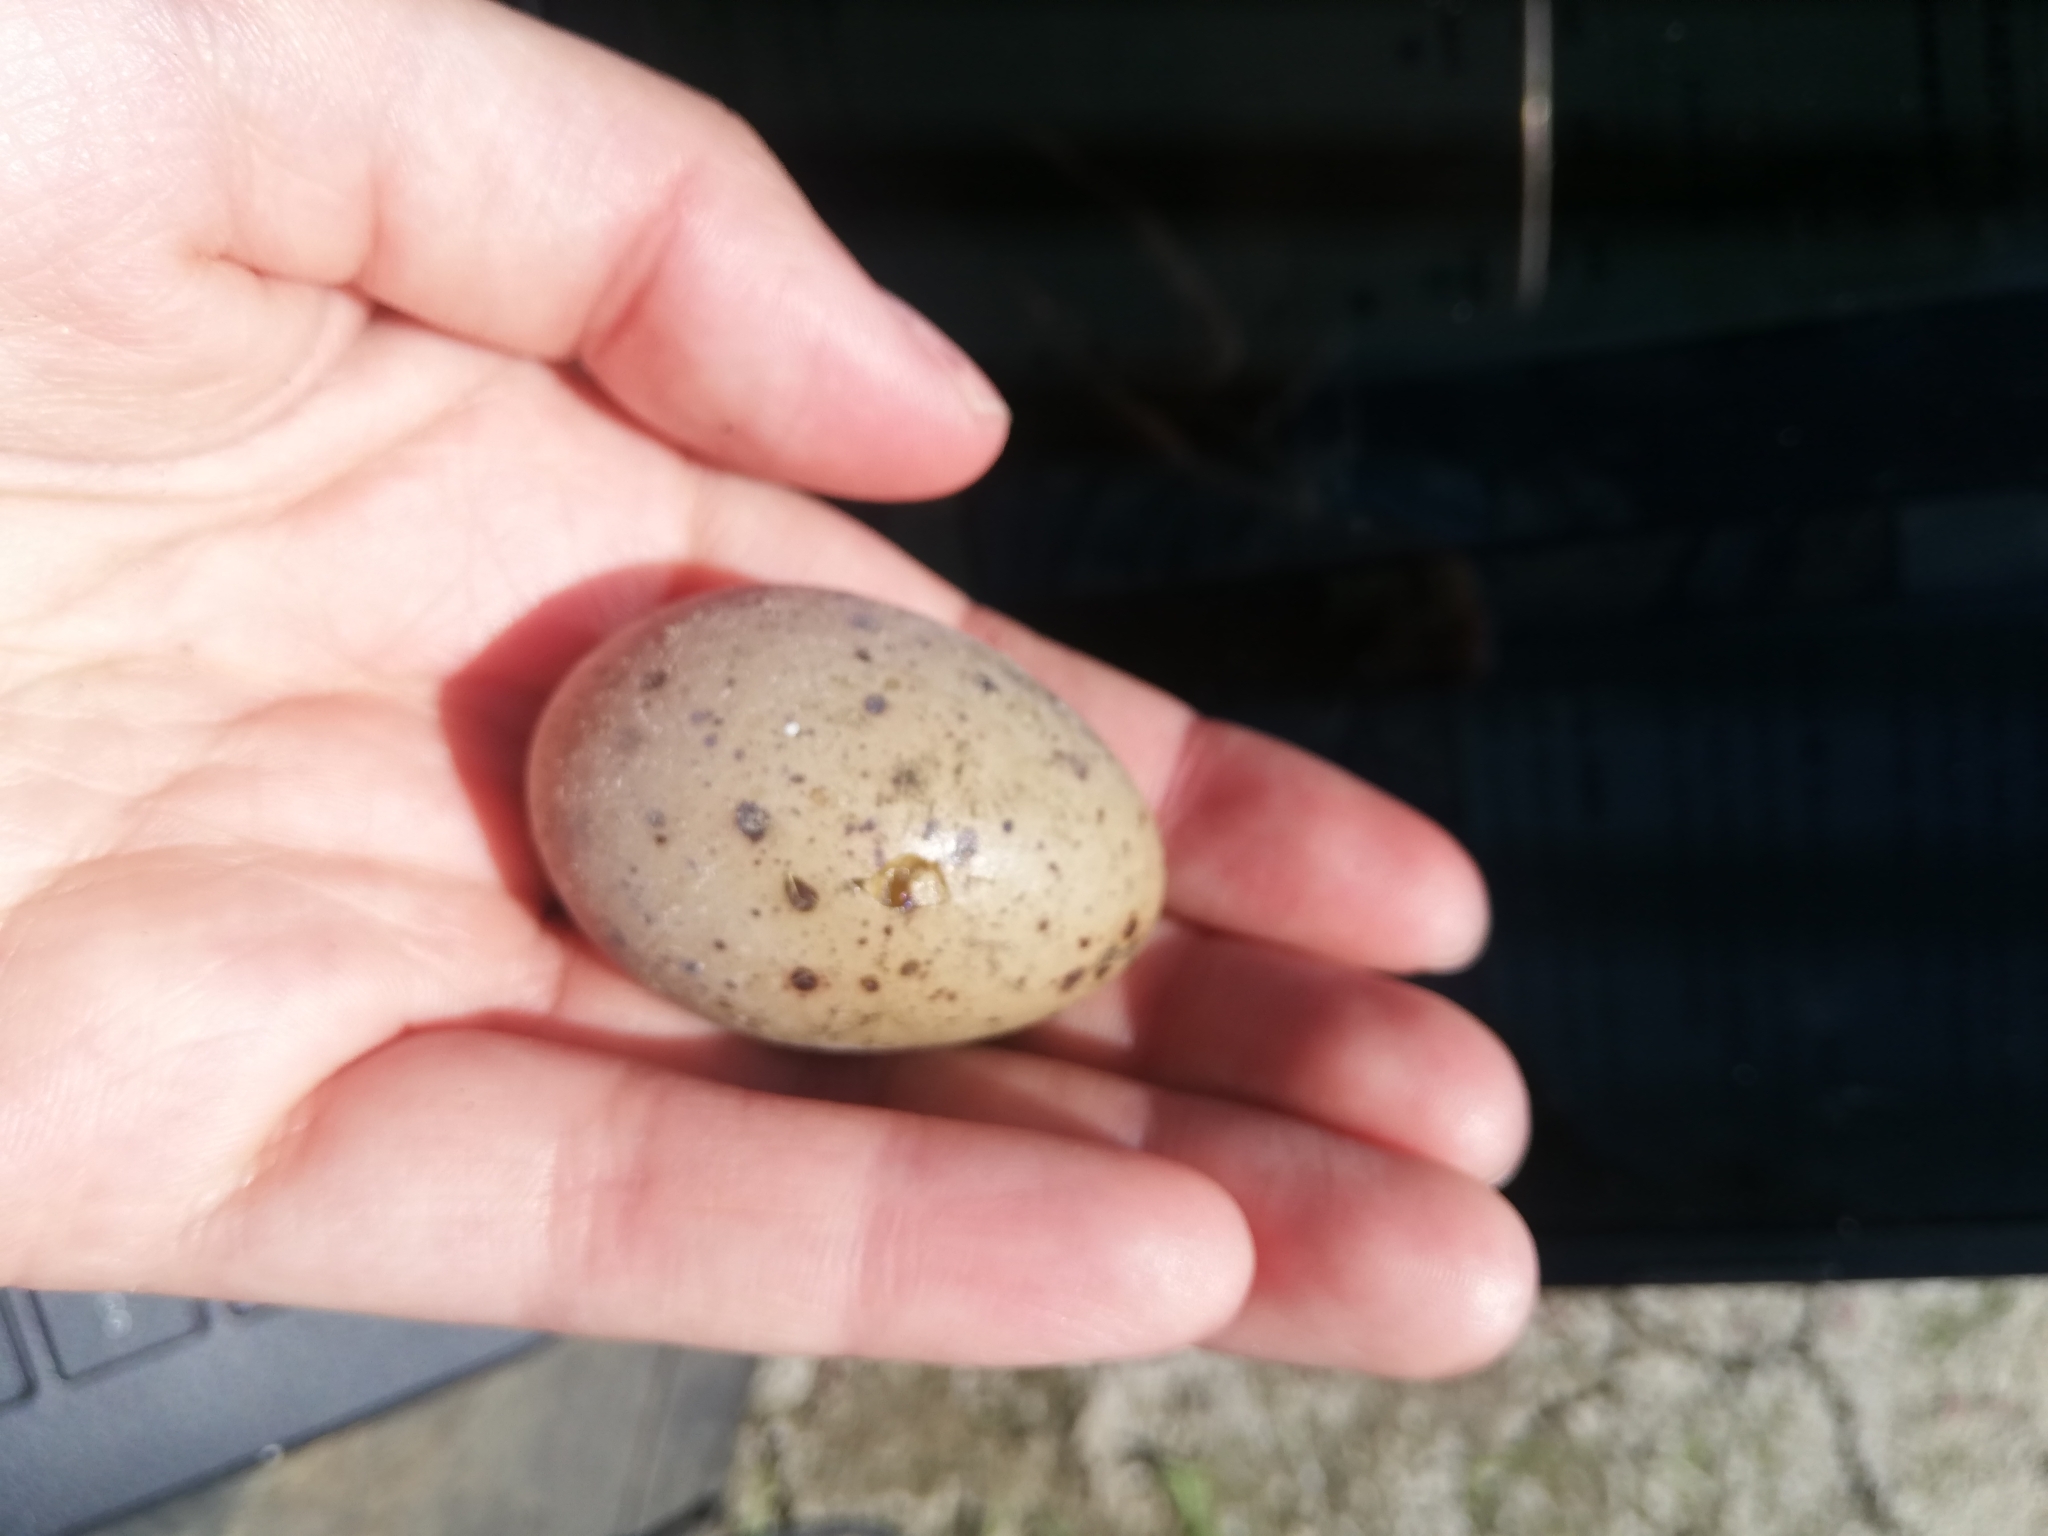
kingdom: Animalia
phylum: Chordata
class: Aves
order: Charadriiformes
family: Charadriidae
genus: Vanellus
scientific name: Vanellus chilensis
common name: Southern lapwing
